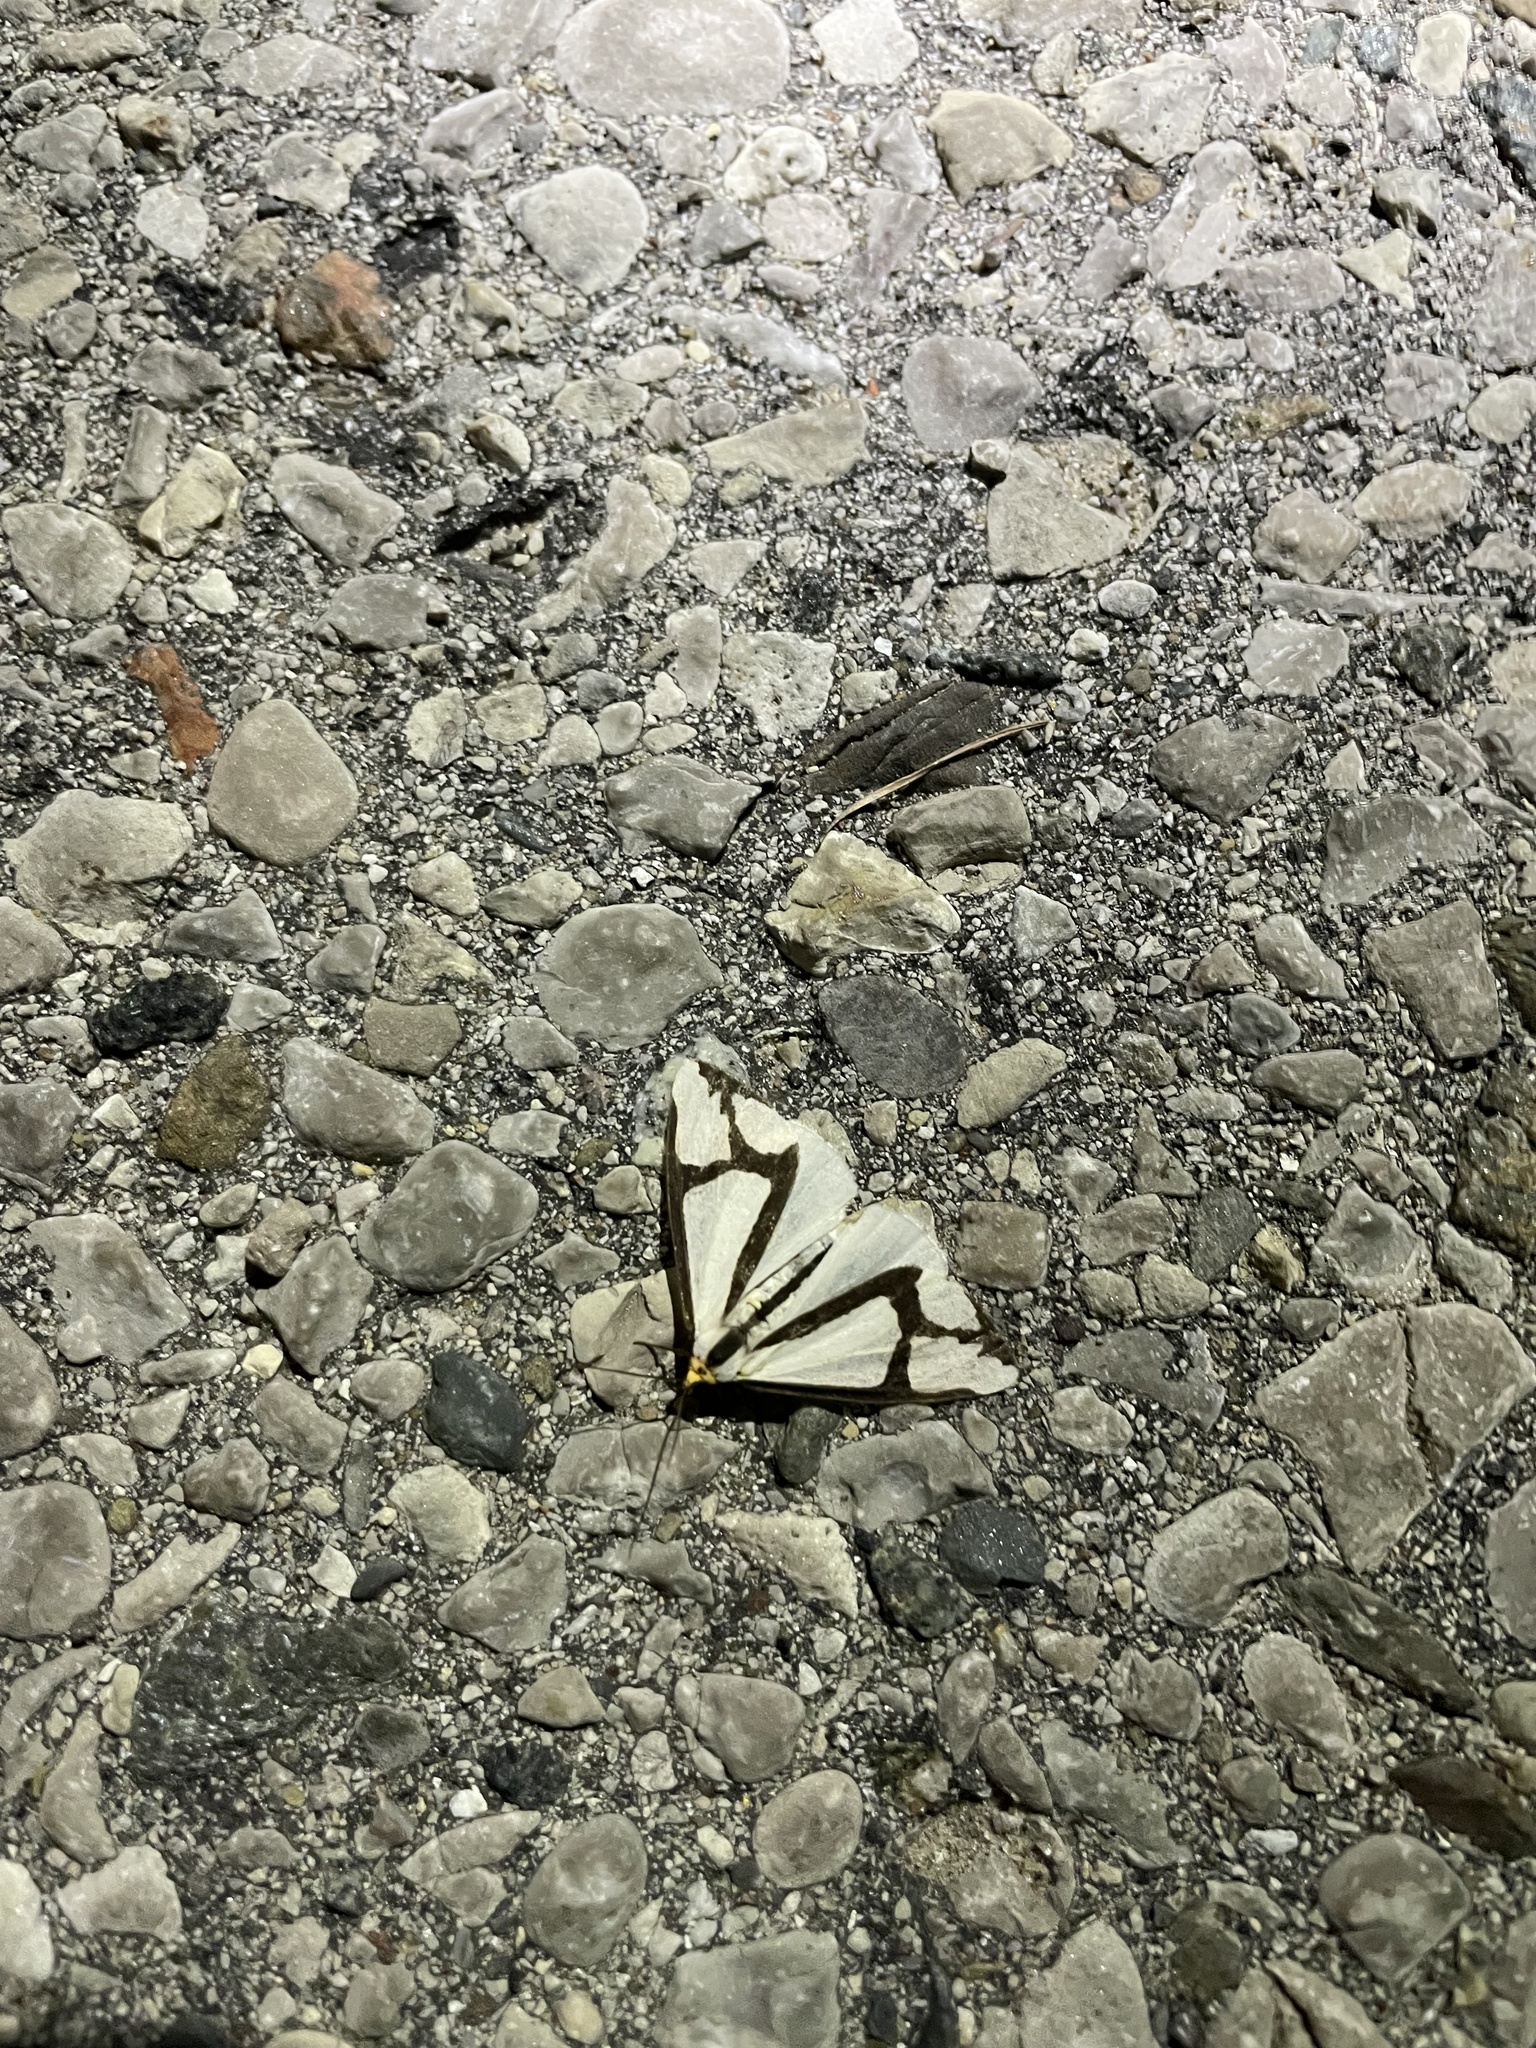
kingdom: Animalia
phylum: Arthropoda
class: Insecta
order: Lepidoptera
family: Erebidae
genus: Haploa
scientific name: Haploa contigua
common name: Neighbor moth
